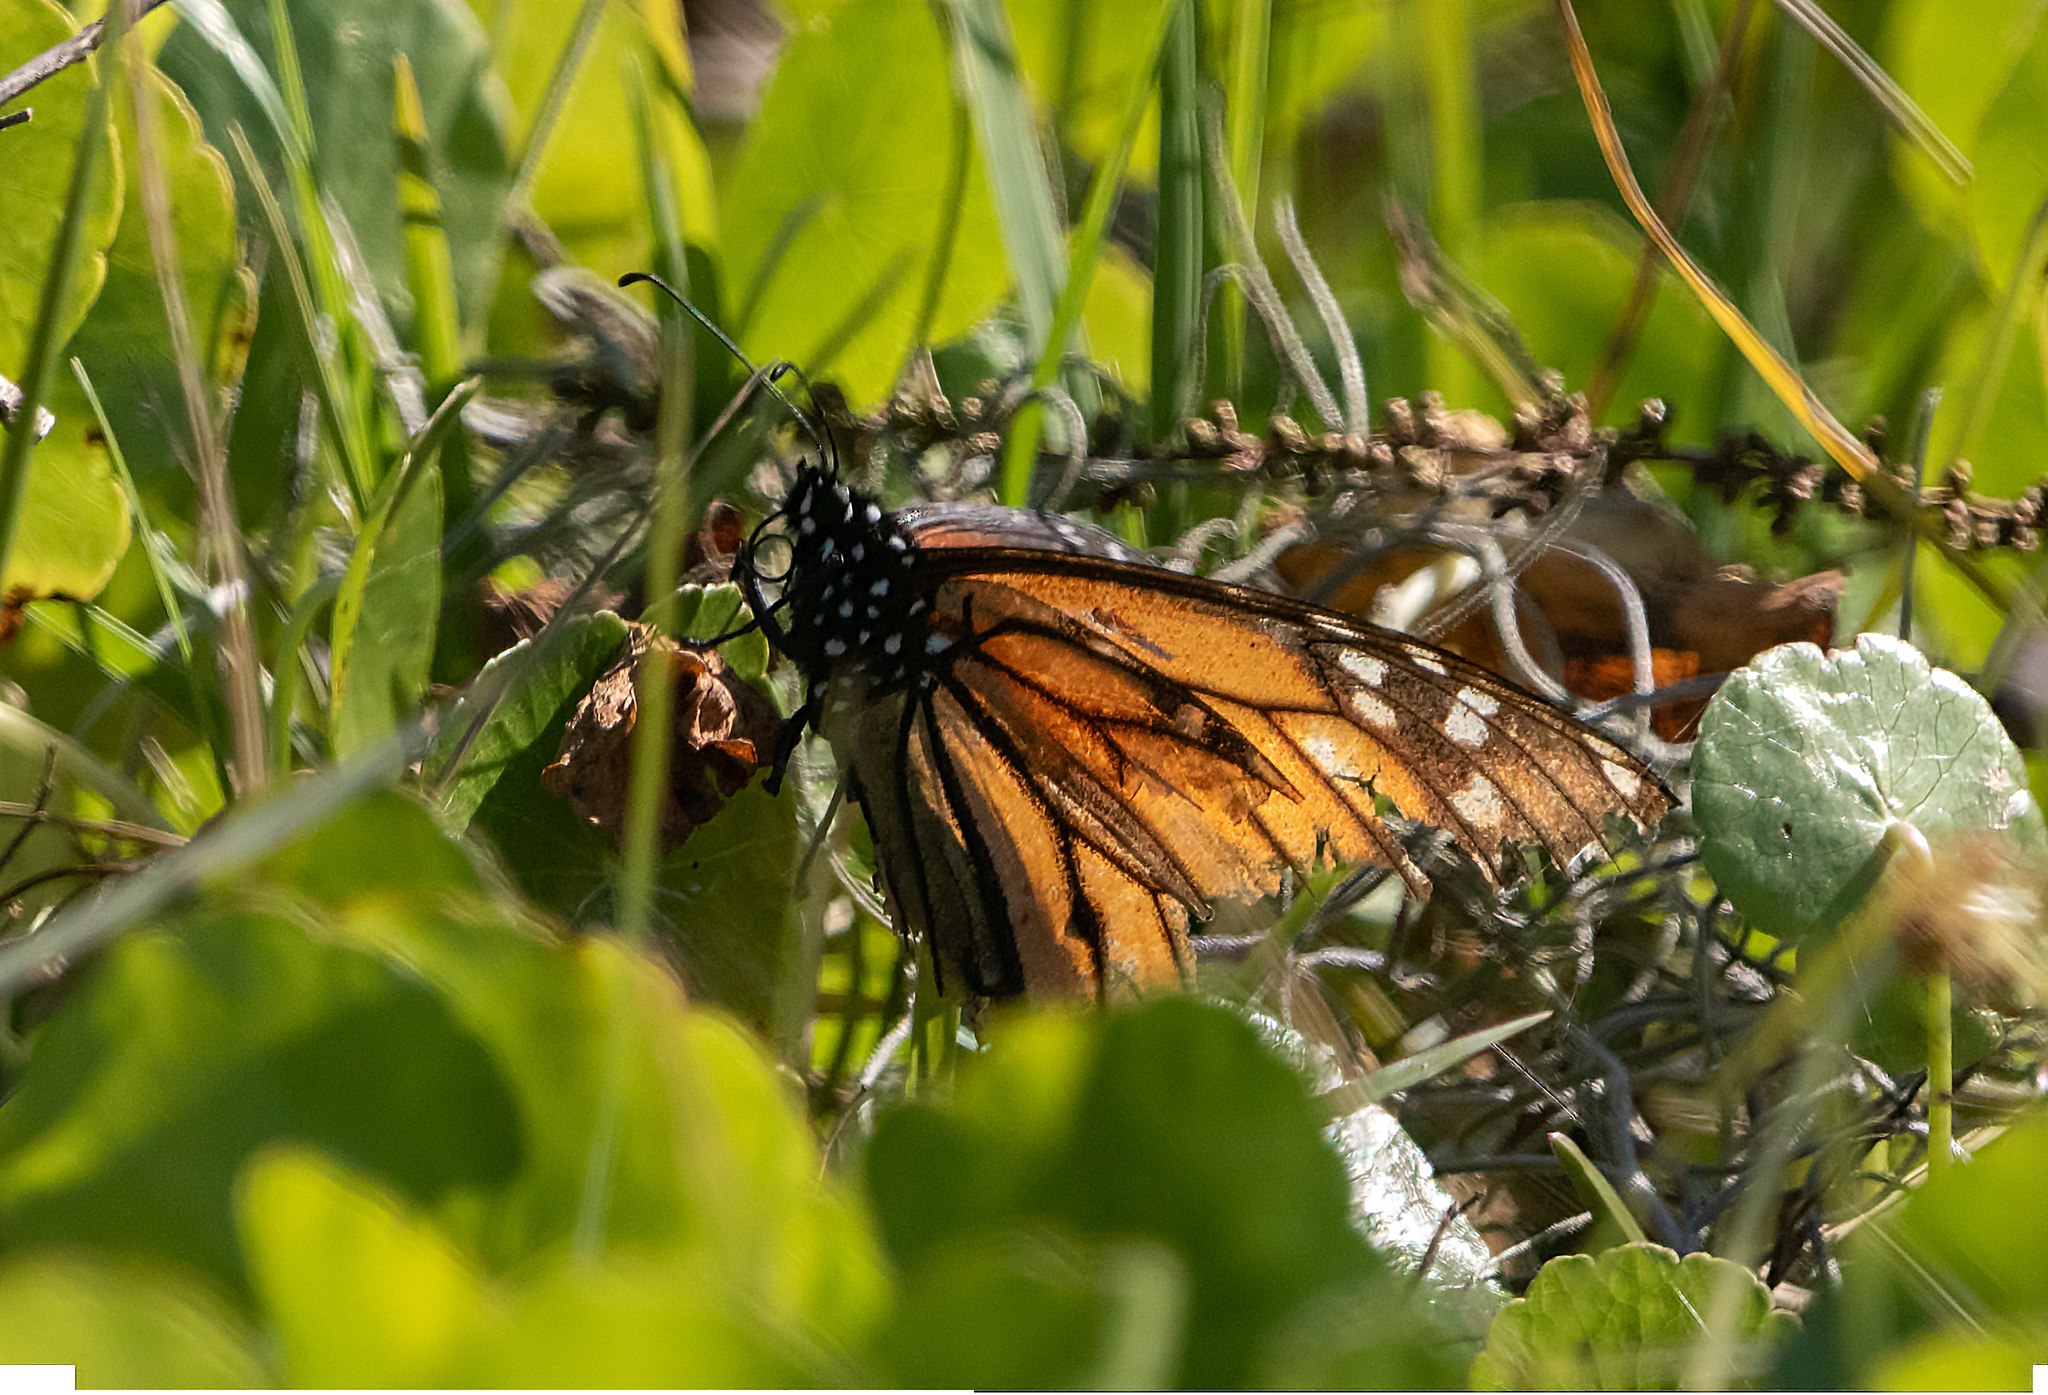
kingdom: Animalia
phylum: Arthropoda
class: Insecta
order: Lepidoptera
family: Nymphalidae
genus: Danaus
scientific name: Danaus plexippus
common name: Monarch
